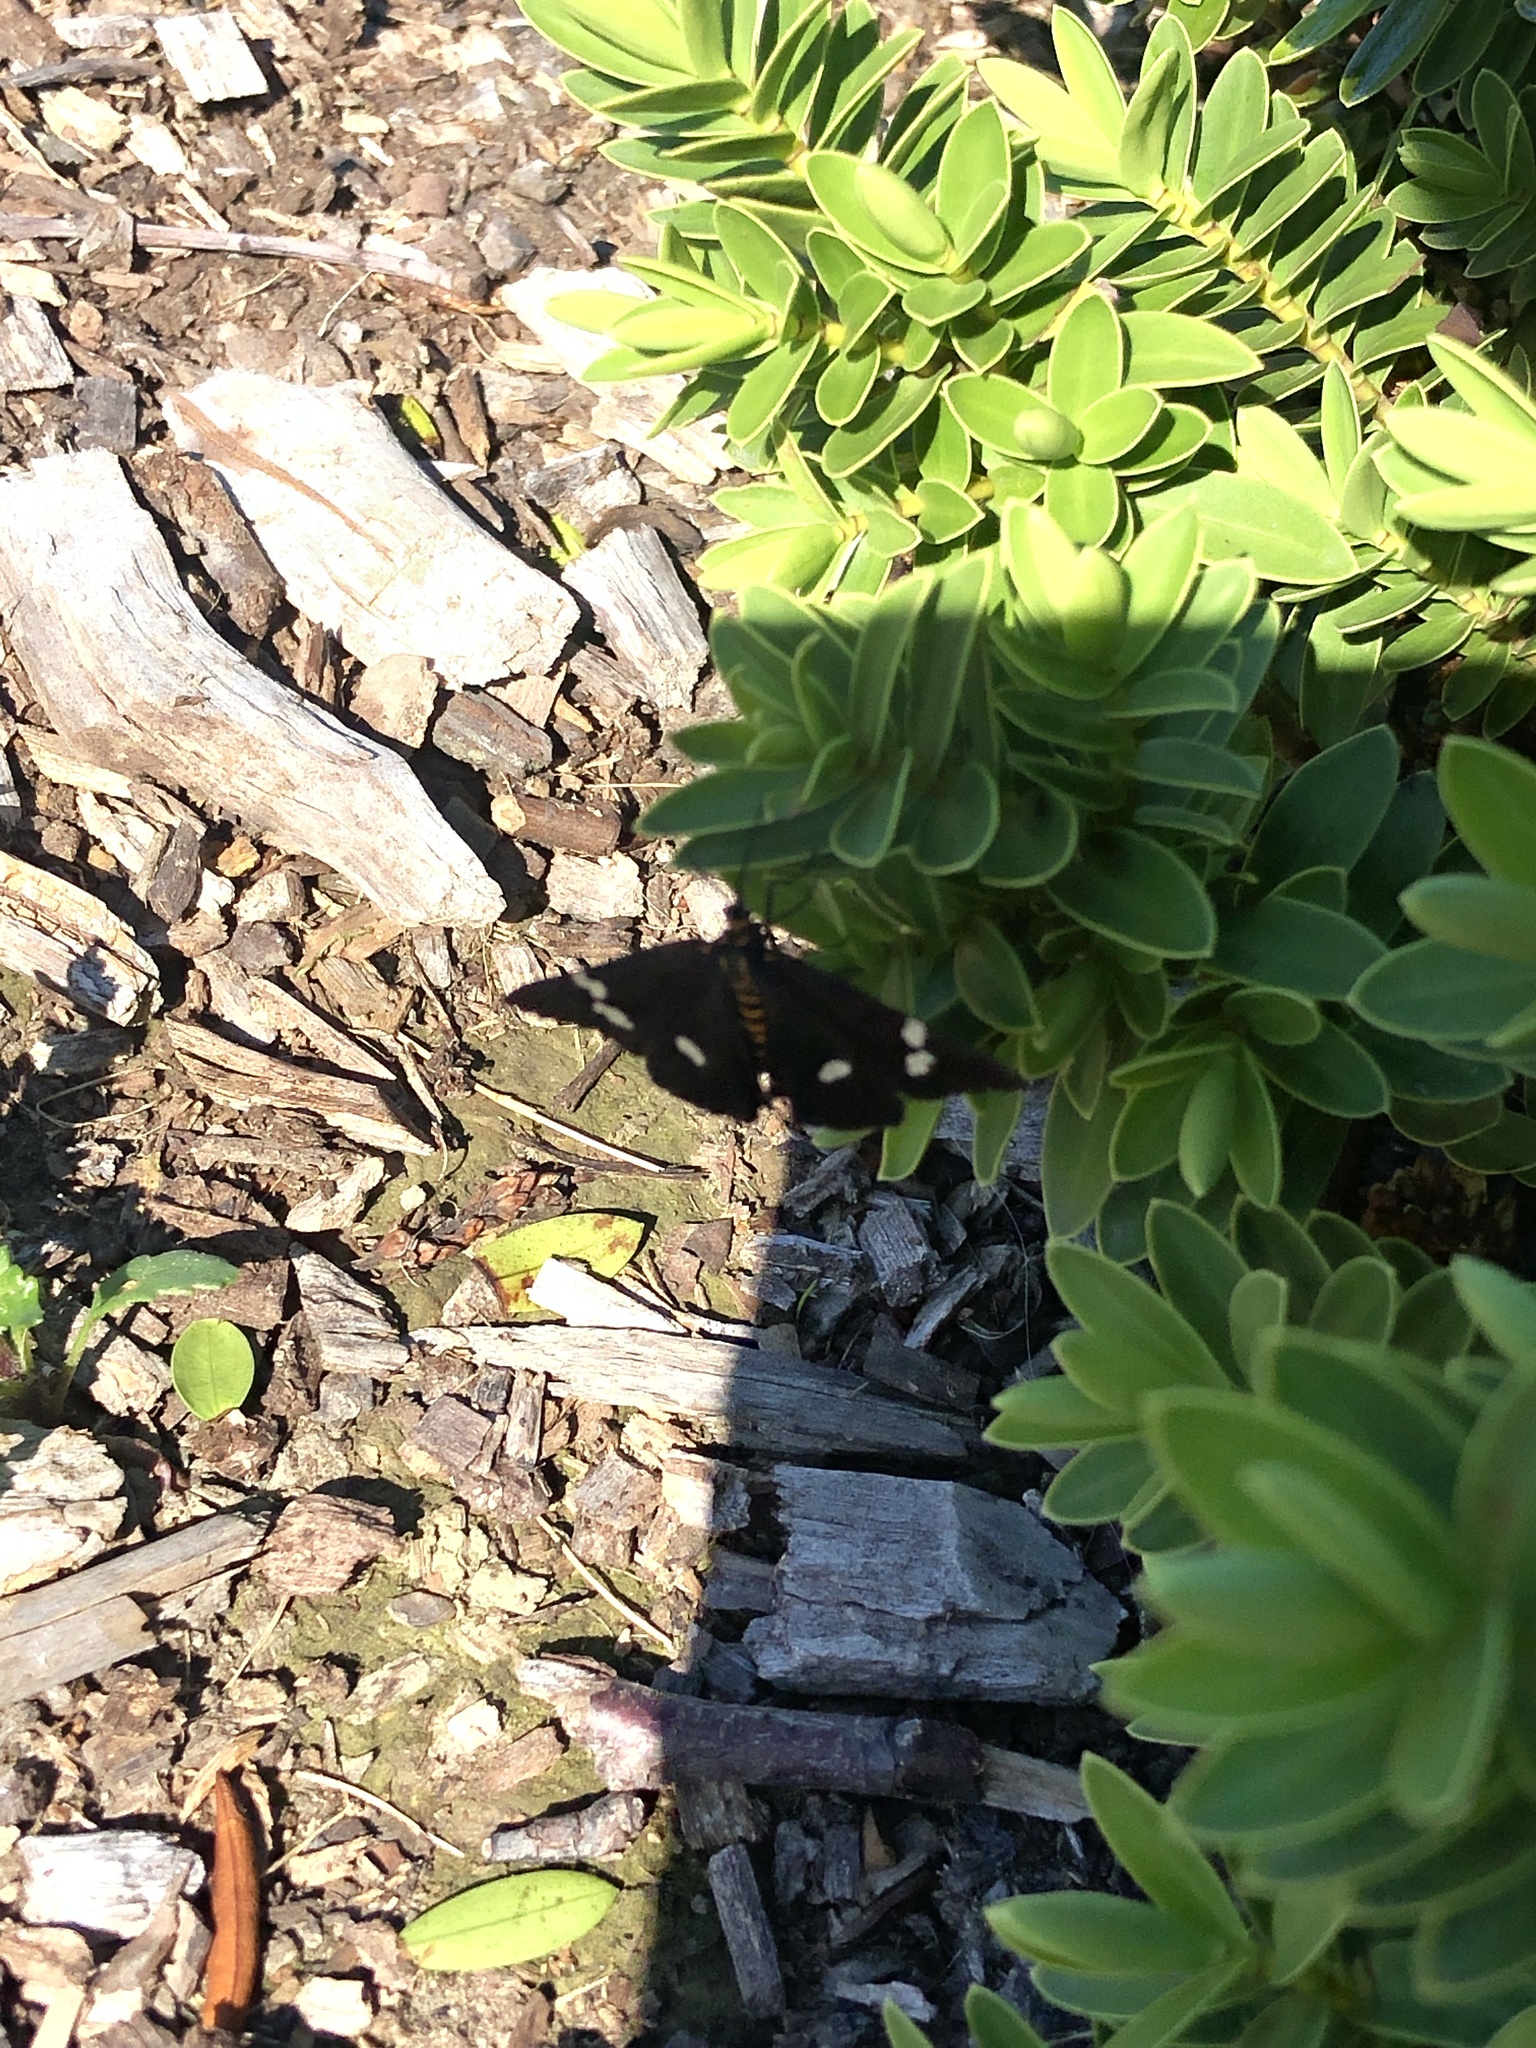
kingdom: Animalia
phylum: Arthropoda
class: Insecta
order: Lepidoptera
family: Erebidae
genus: Nyctemera
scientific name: Nyctemera annulatum
